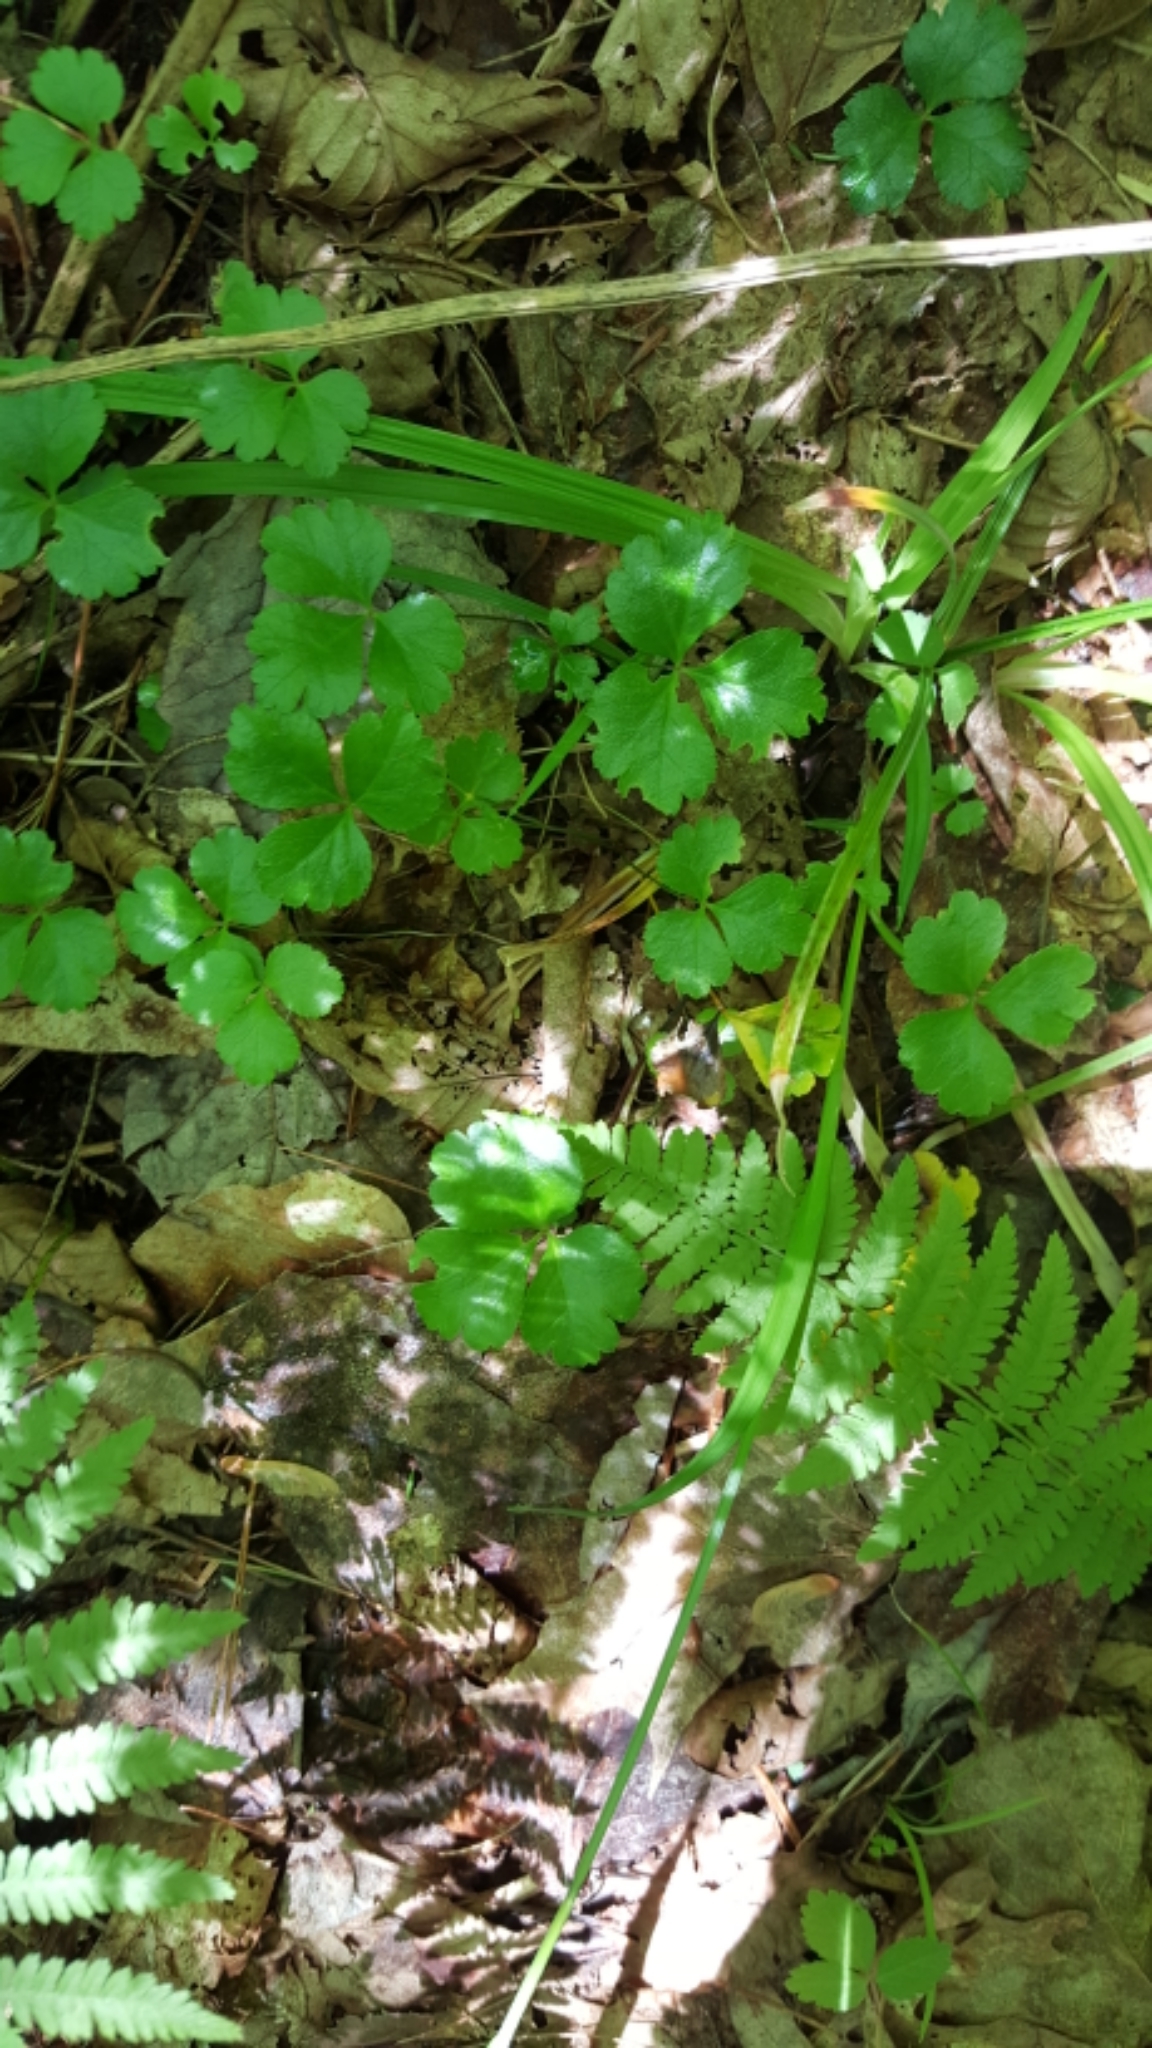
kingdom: Plantae
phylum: Tracheophyta
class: Magnoliopsida
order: Ranunculales
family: Ranunculaceae
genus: Coptis
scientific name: Coptis trifolia
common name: Canker-root
